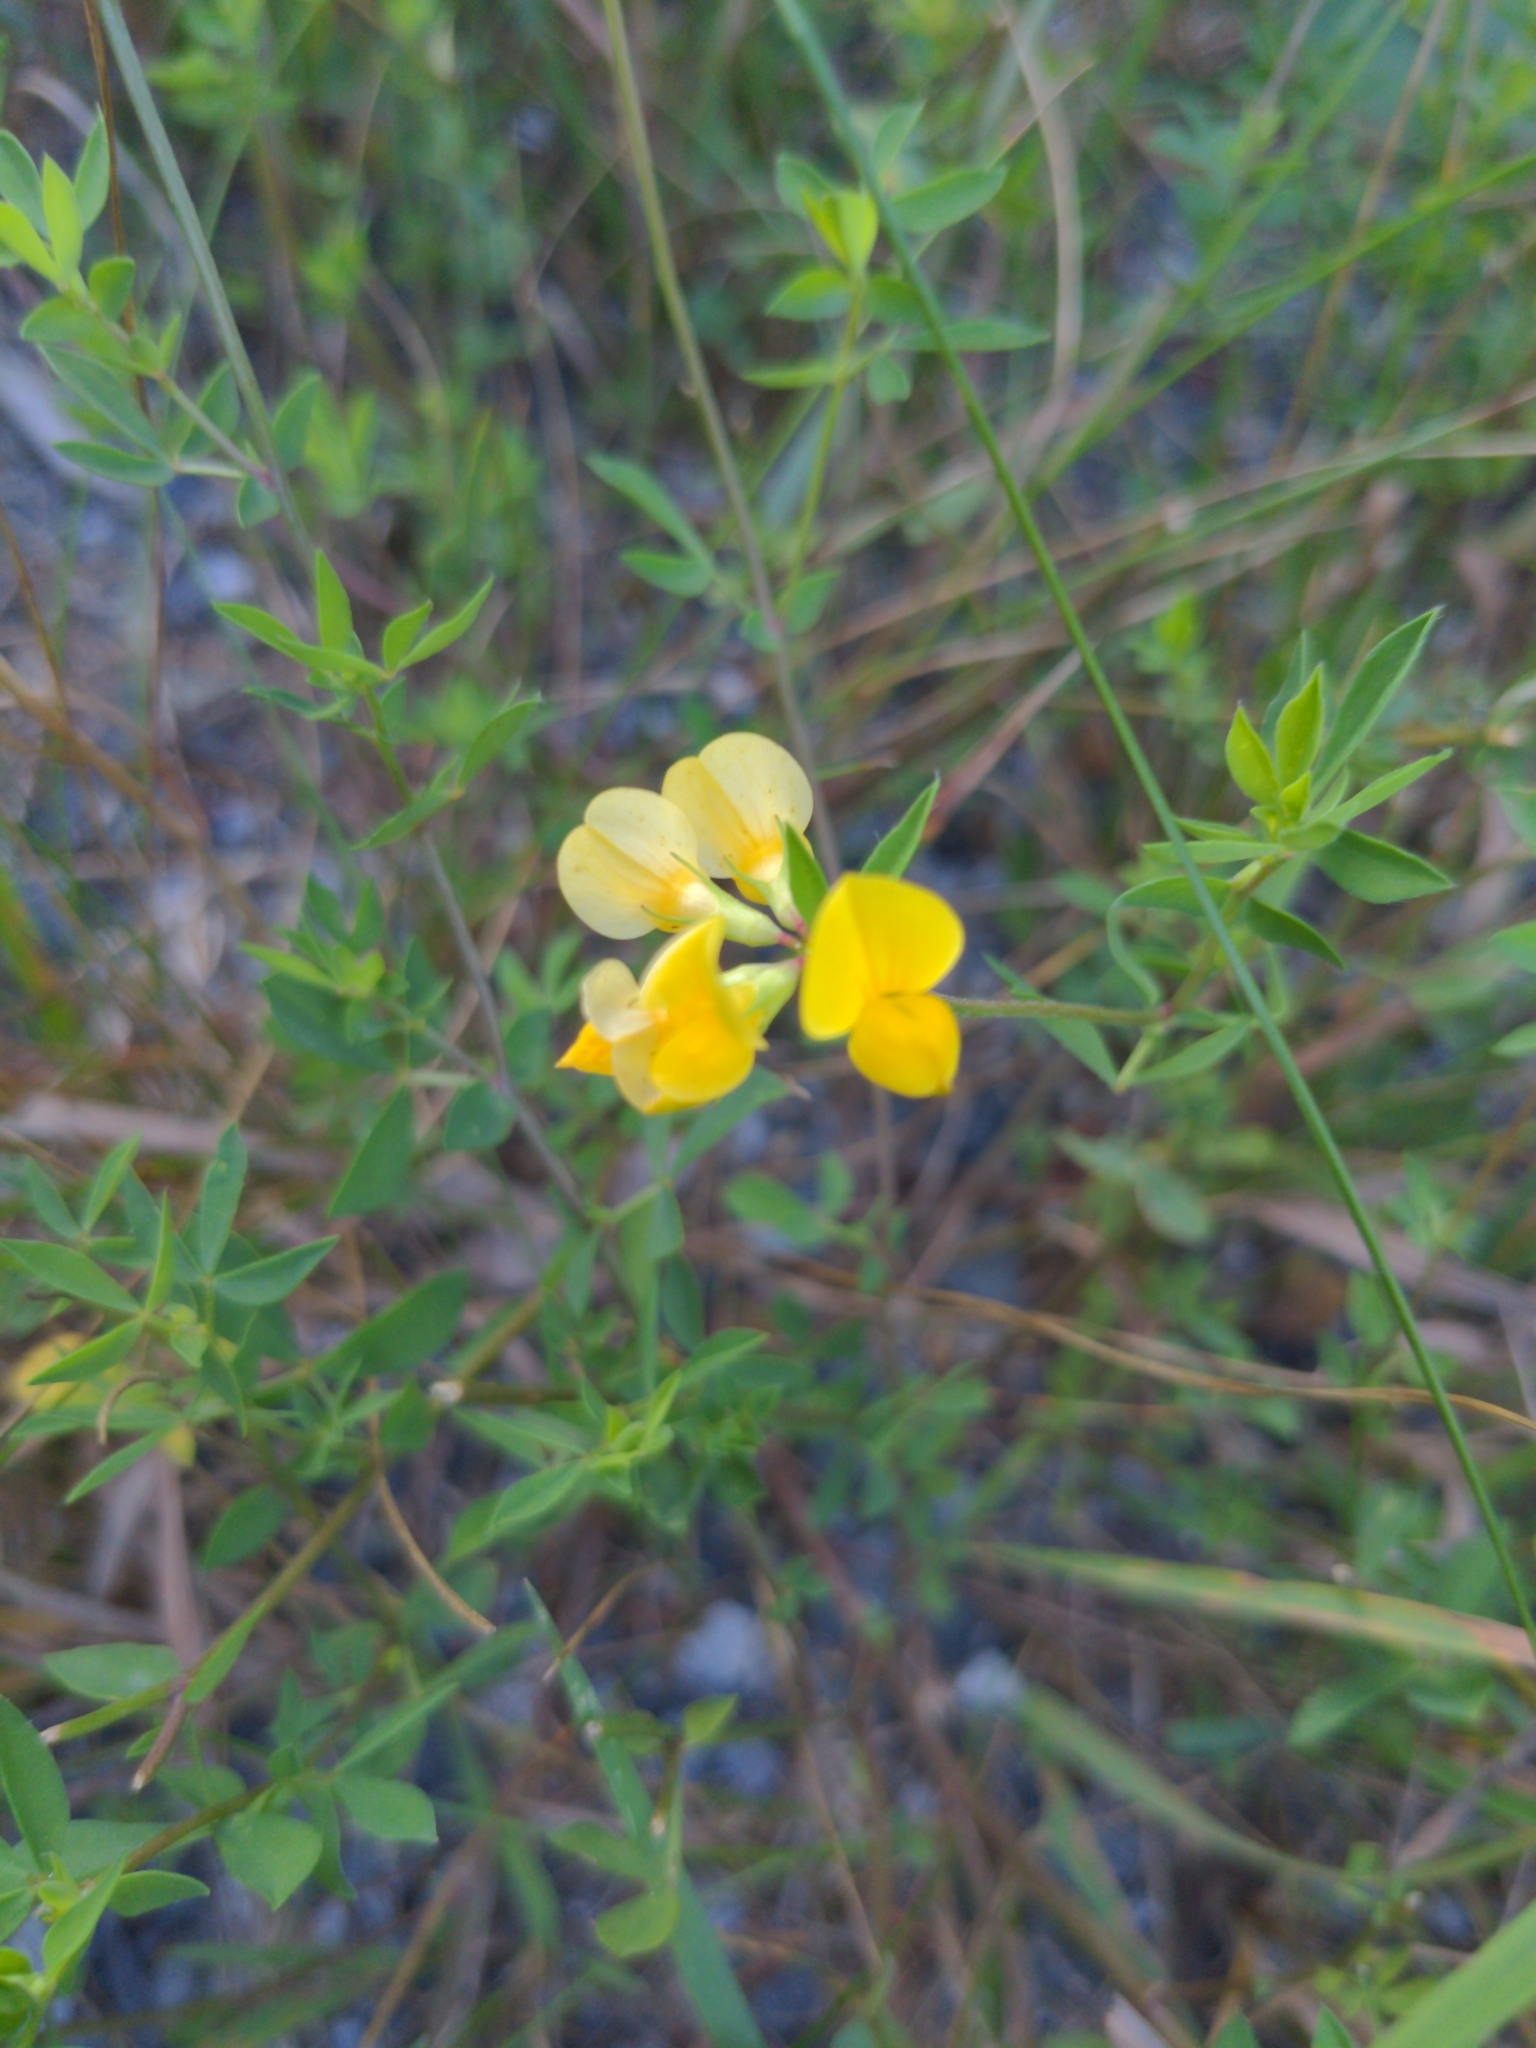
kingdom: Plantae
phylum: Tracheophyta
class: Magnoliopsida
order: Fabales
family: Fabaceae
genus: Lotus
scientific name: Lotus corniculatus
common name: Common bird's-foot-trefoil
